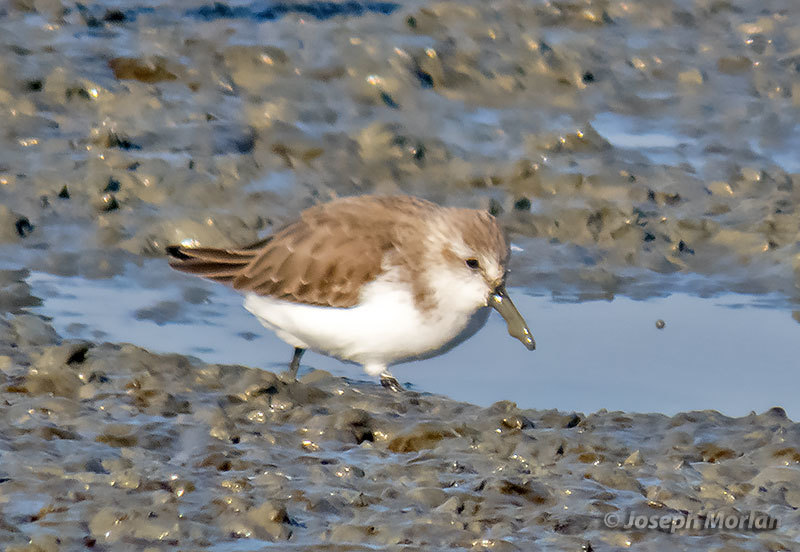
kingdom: Animalia
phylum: Chordata
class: Aves
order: Charadriiformes
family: Scolopacidae
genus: Calidris
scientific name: Calidris mauri
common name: Western sandpiper
